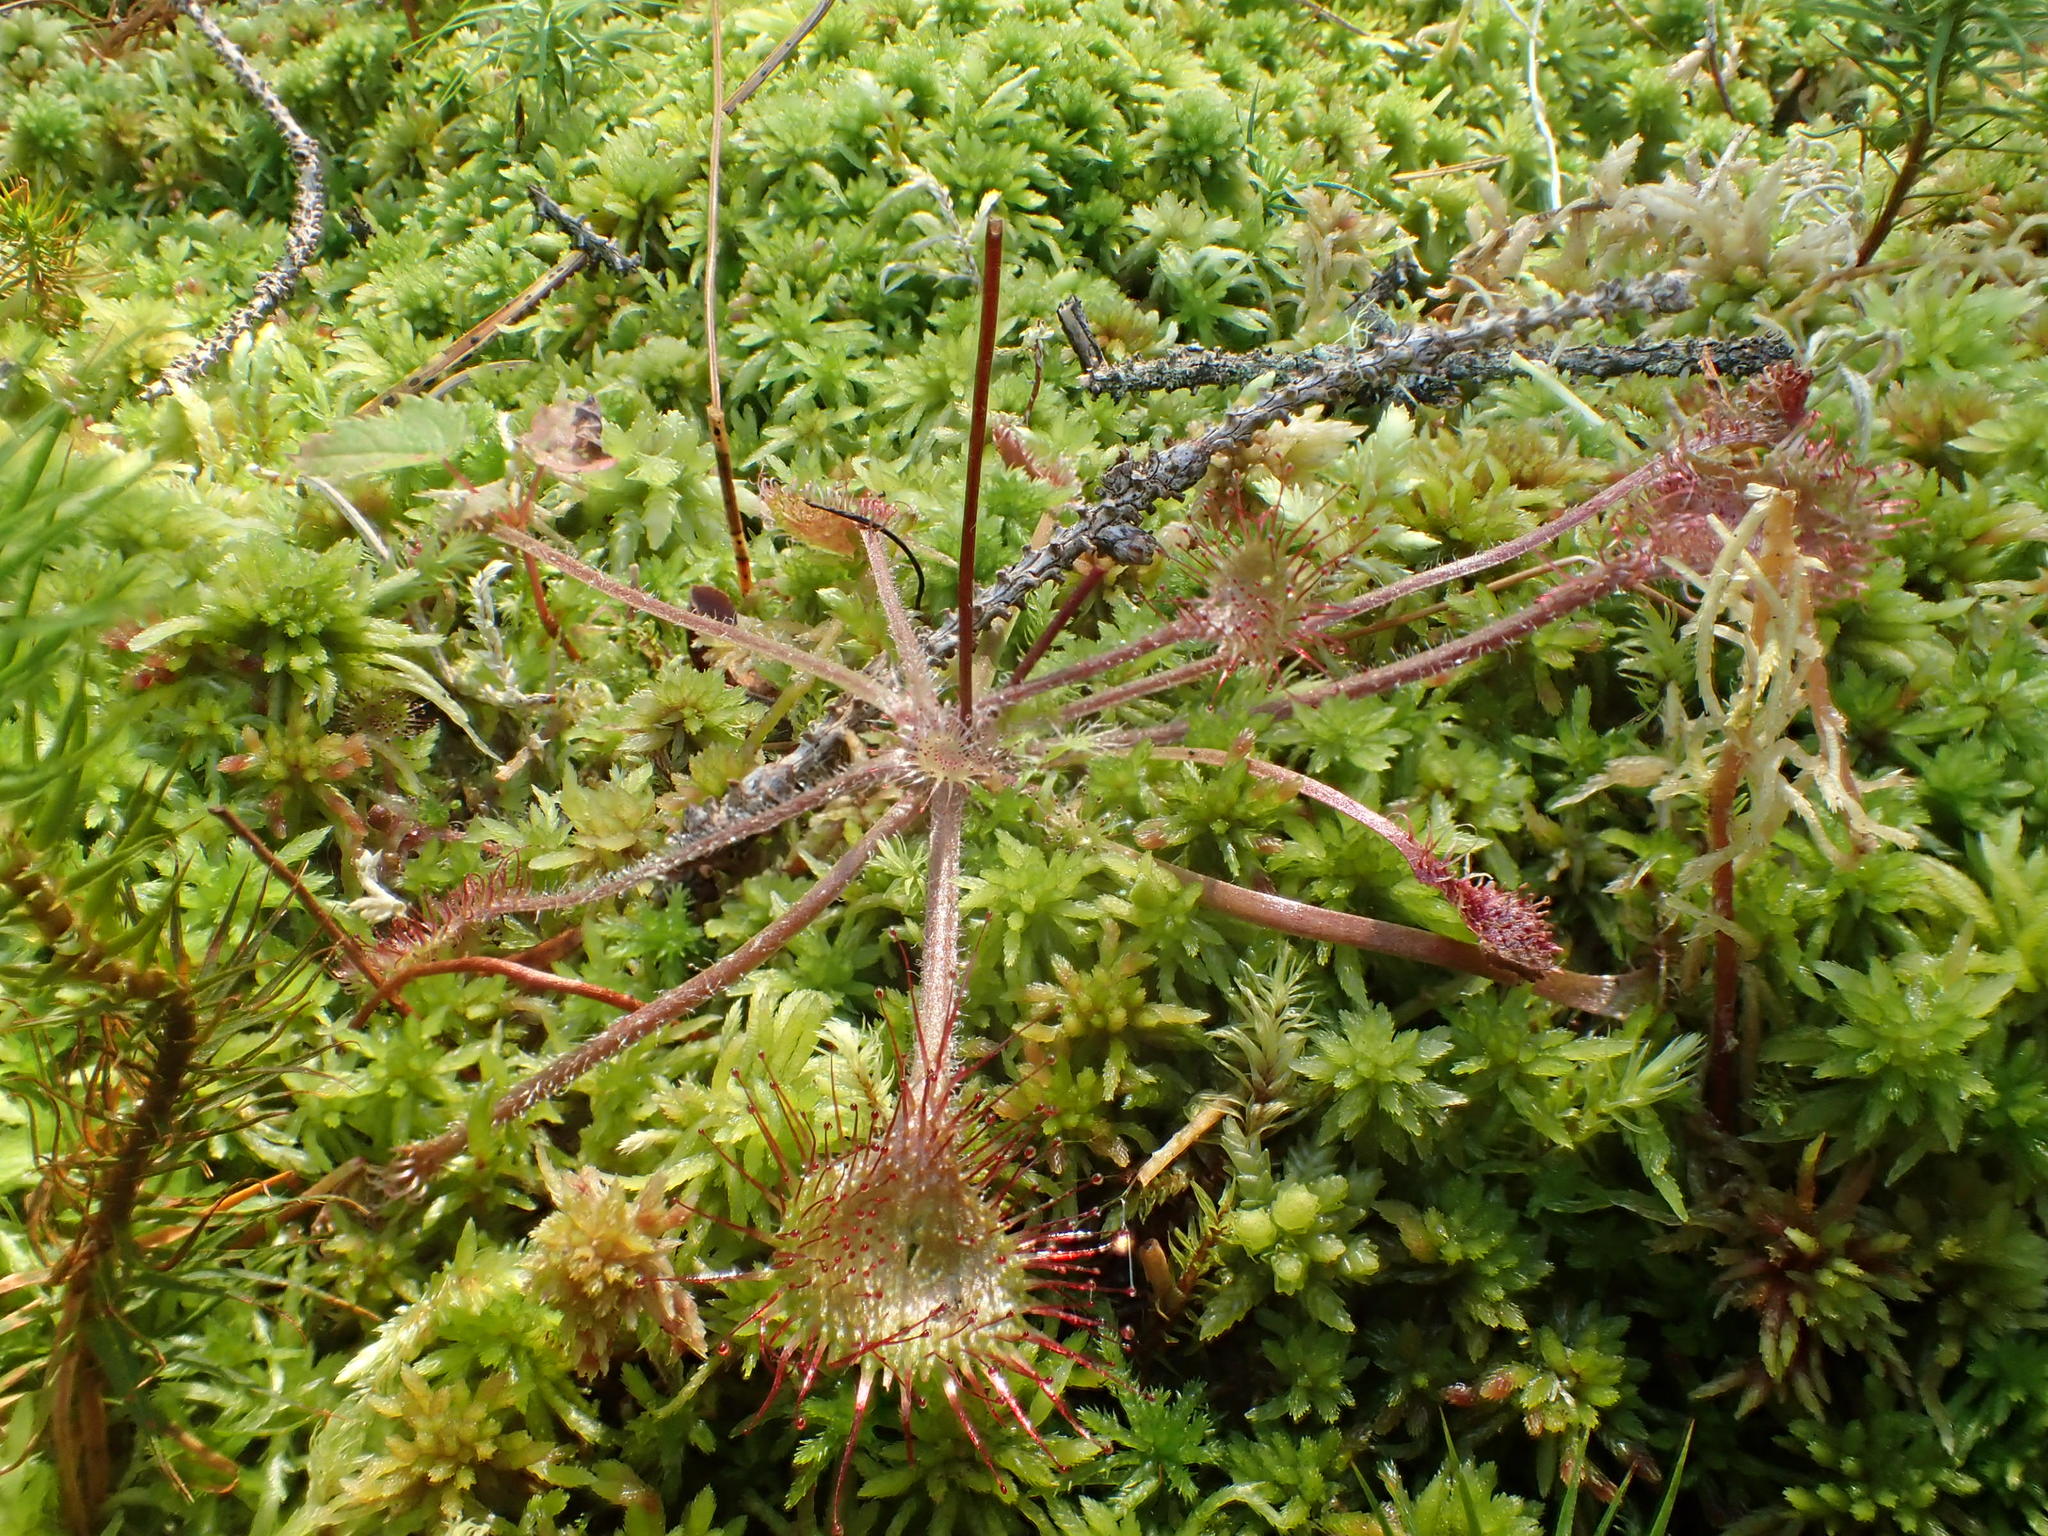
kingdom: Plantae
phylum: Tracheophyta
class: Magnoliopsida
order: Caryophyllales
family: Droseraceae
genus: Drosera
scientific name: Drosera rotundifolia
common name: Round-leaved sundew
